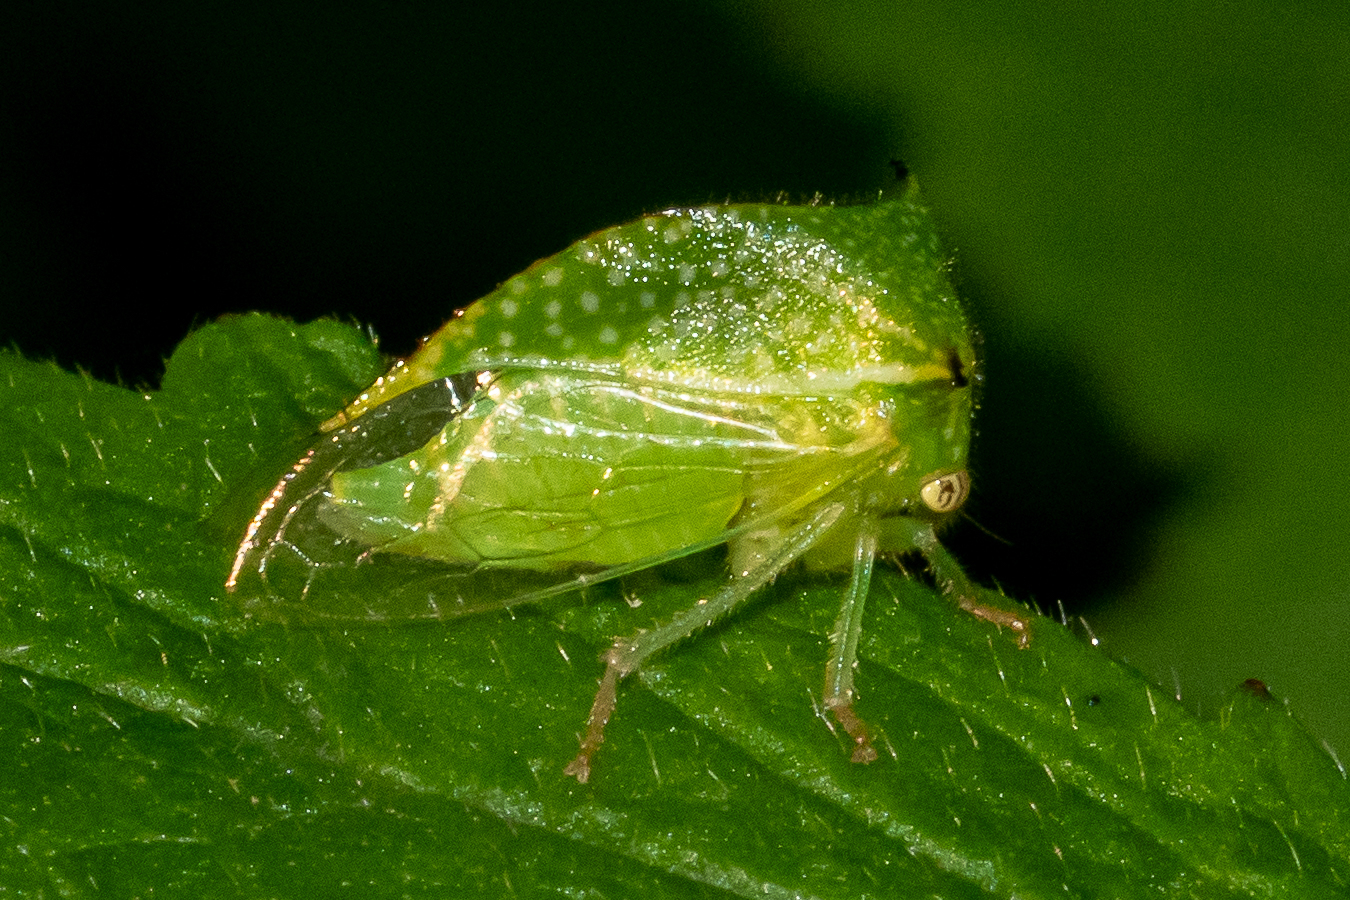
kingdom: Animalia
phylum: Arthropoda
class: Insecta
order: Hemiptera
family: Membracidae
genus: Hadrophallus
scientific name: Hadrophallus
